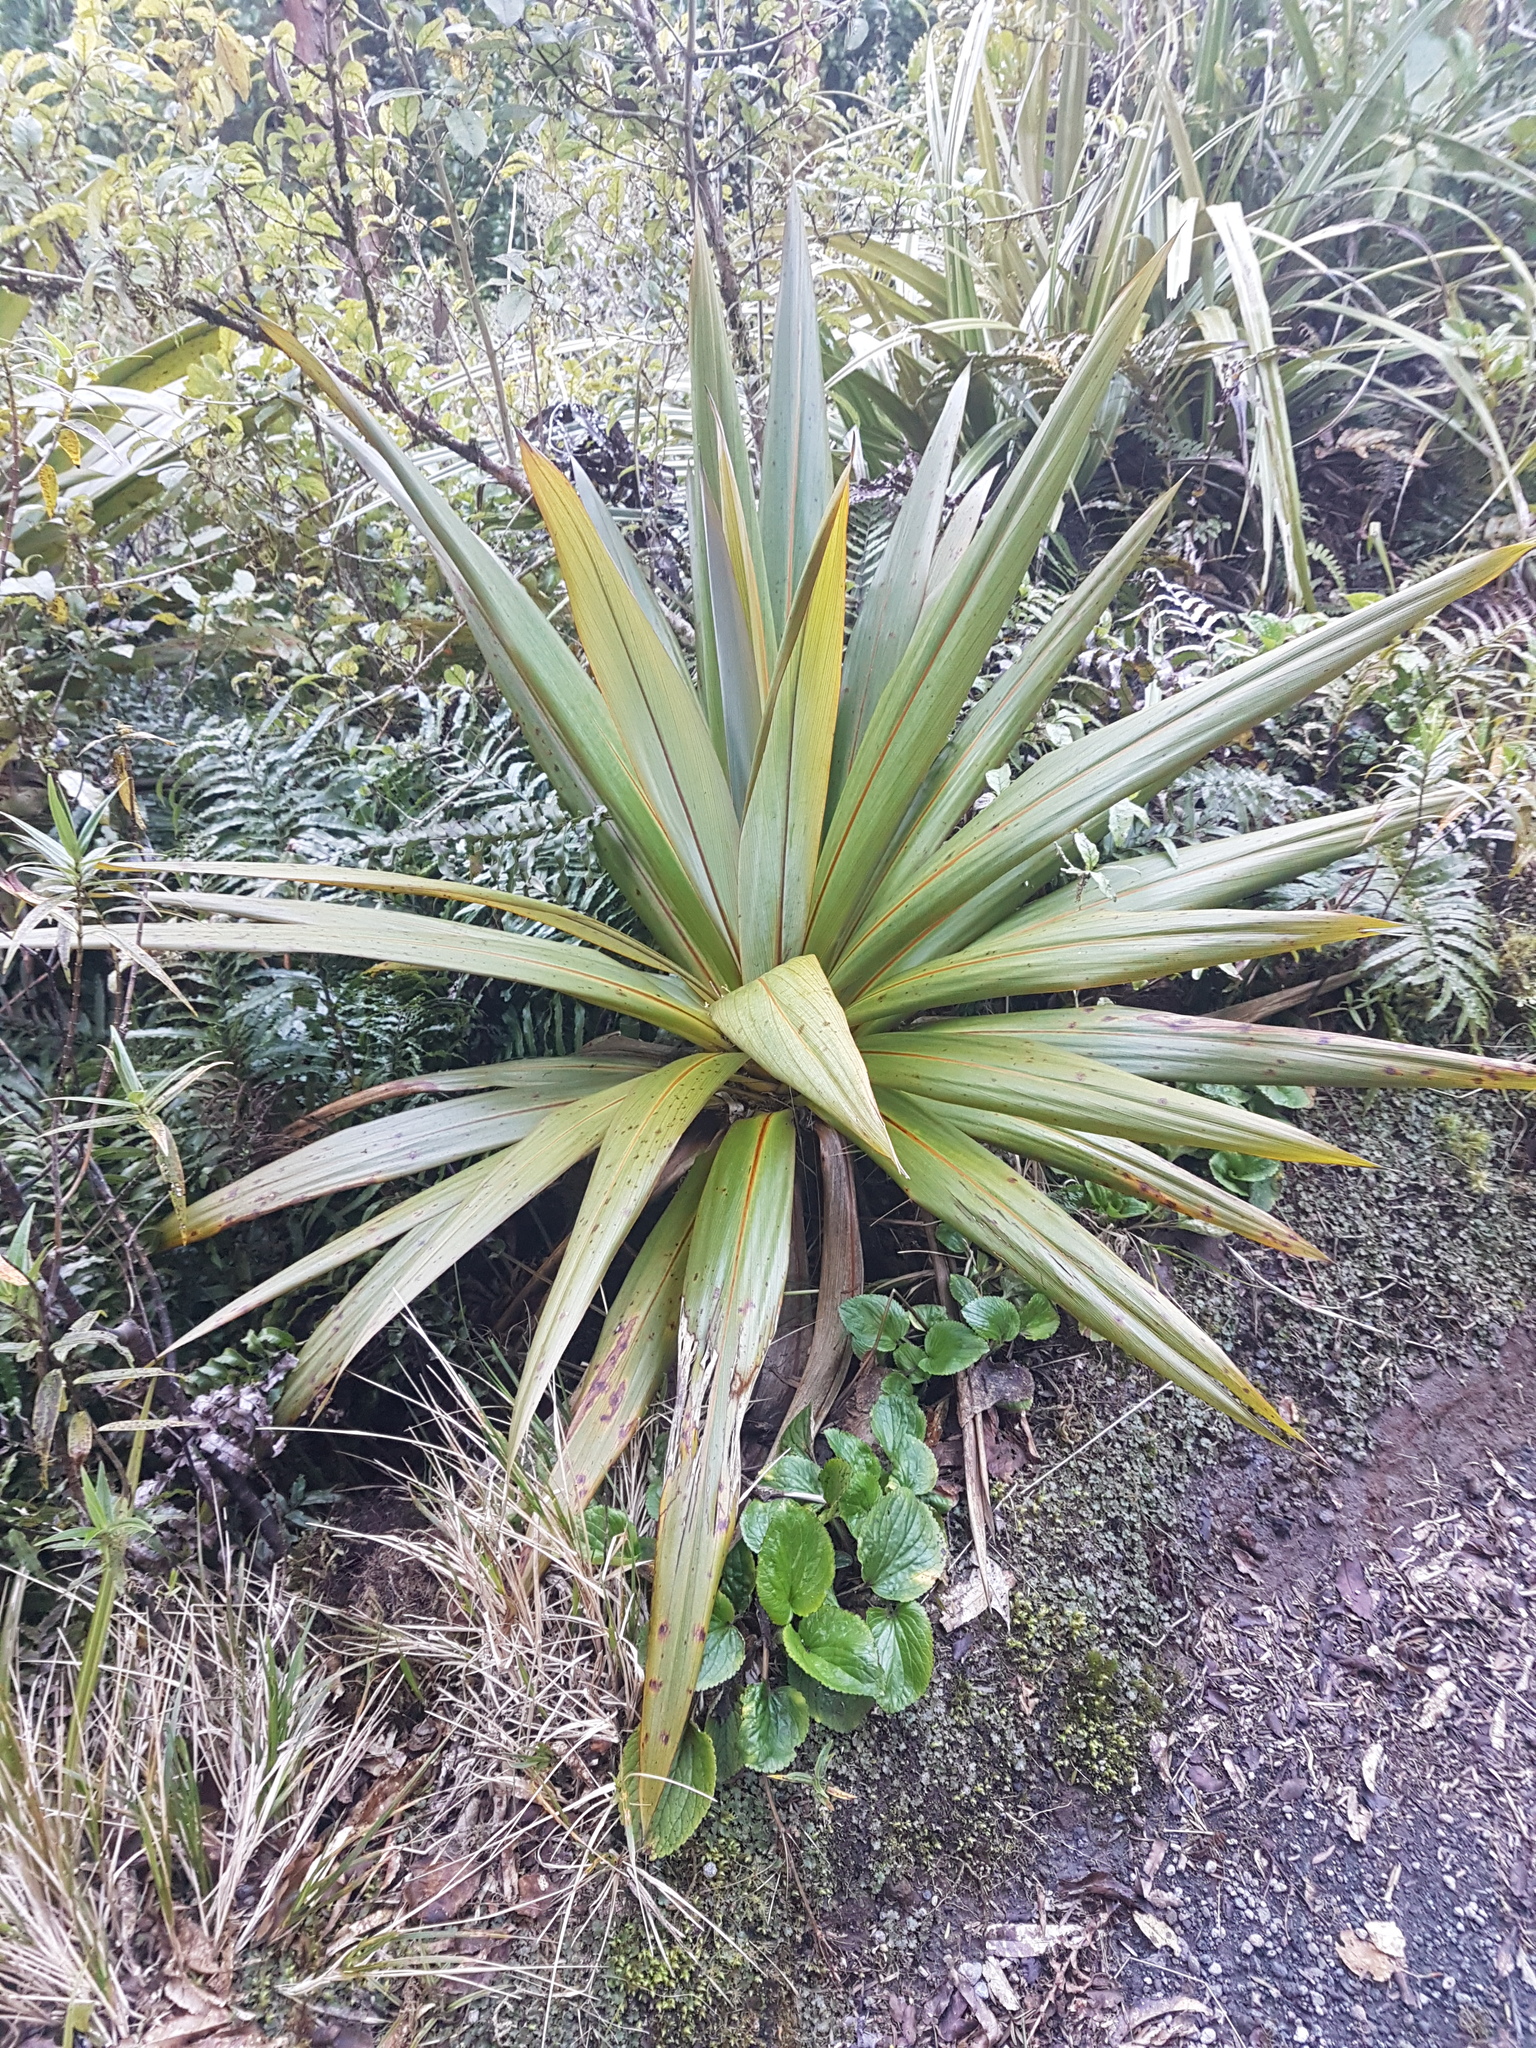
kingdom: Plantae
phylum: Tracheophyta
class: Liliopsida
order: Asparagales
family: Asparagaceae
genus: Cordyline
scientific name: Cordyline indivisa
